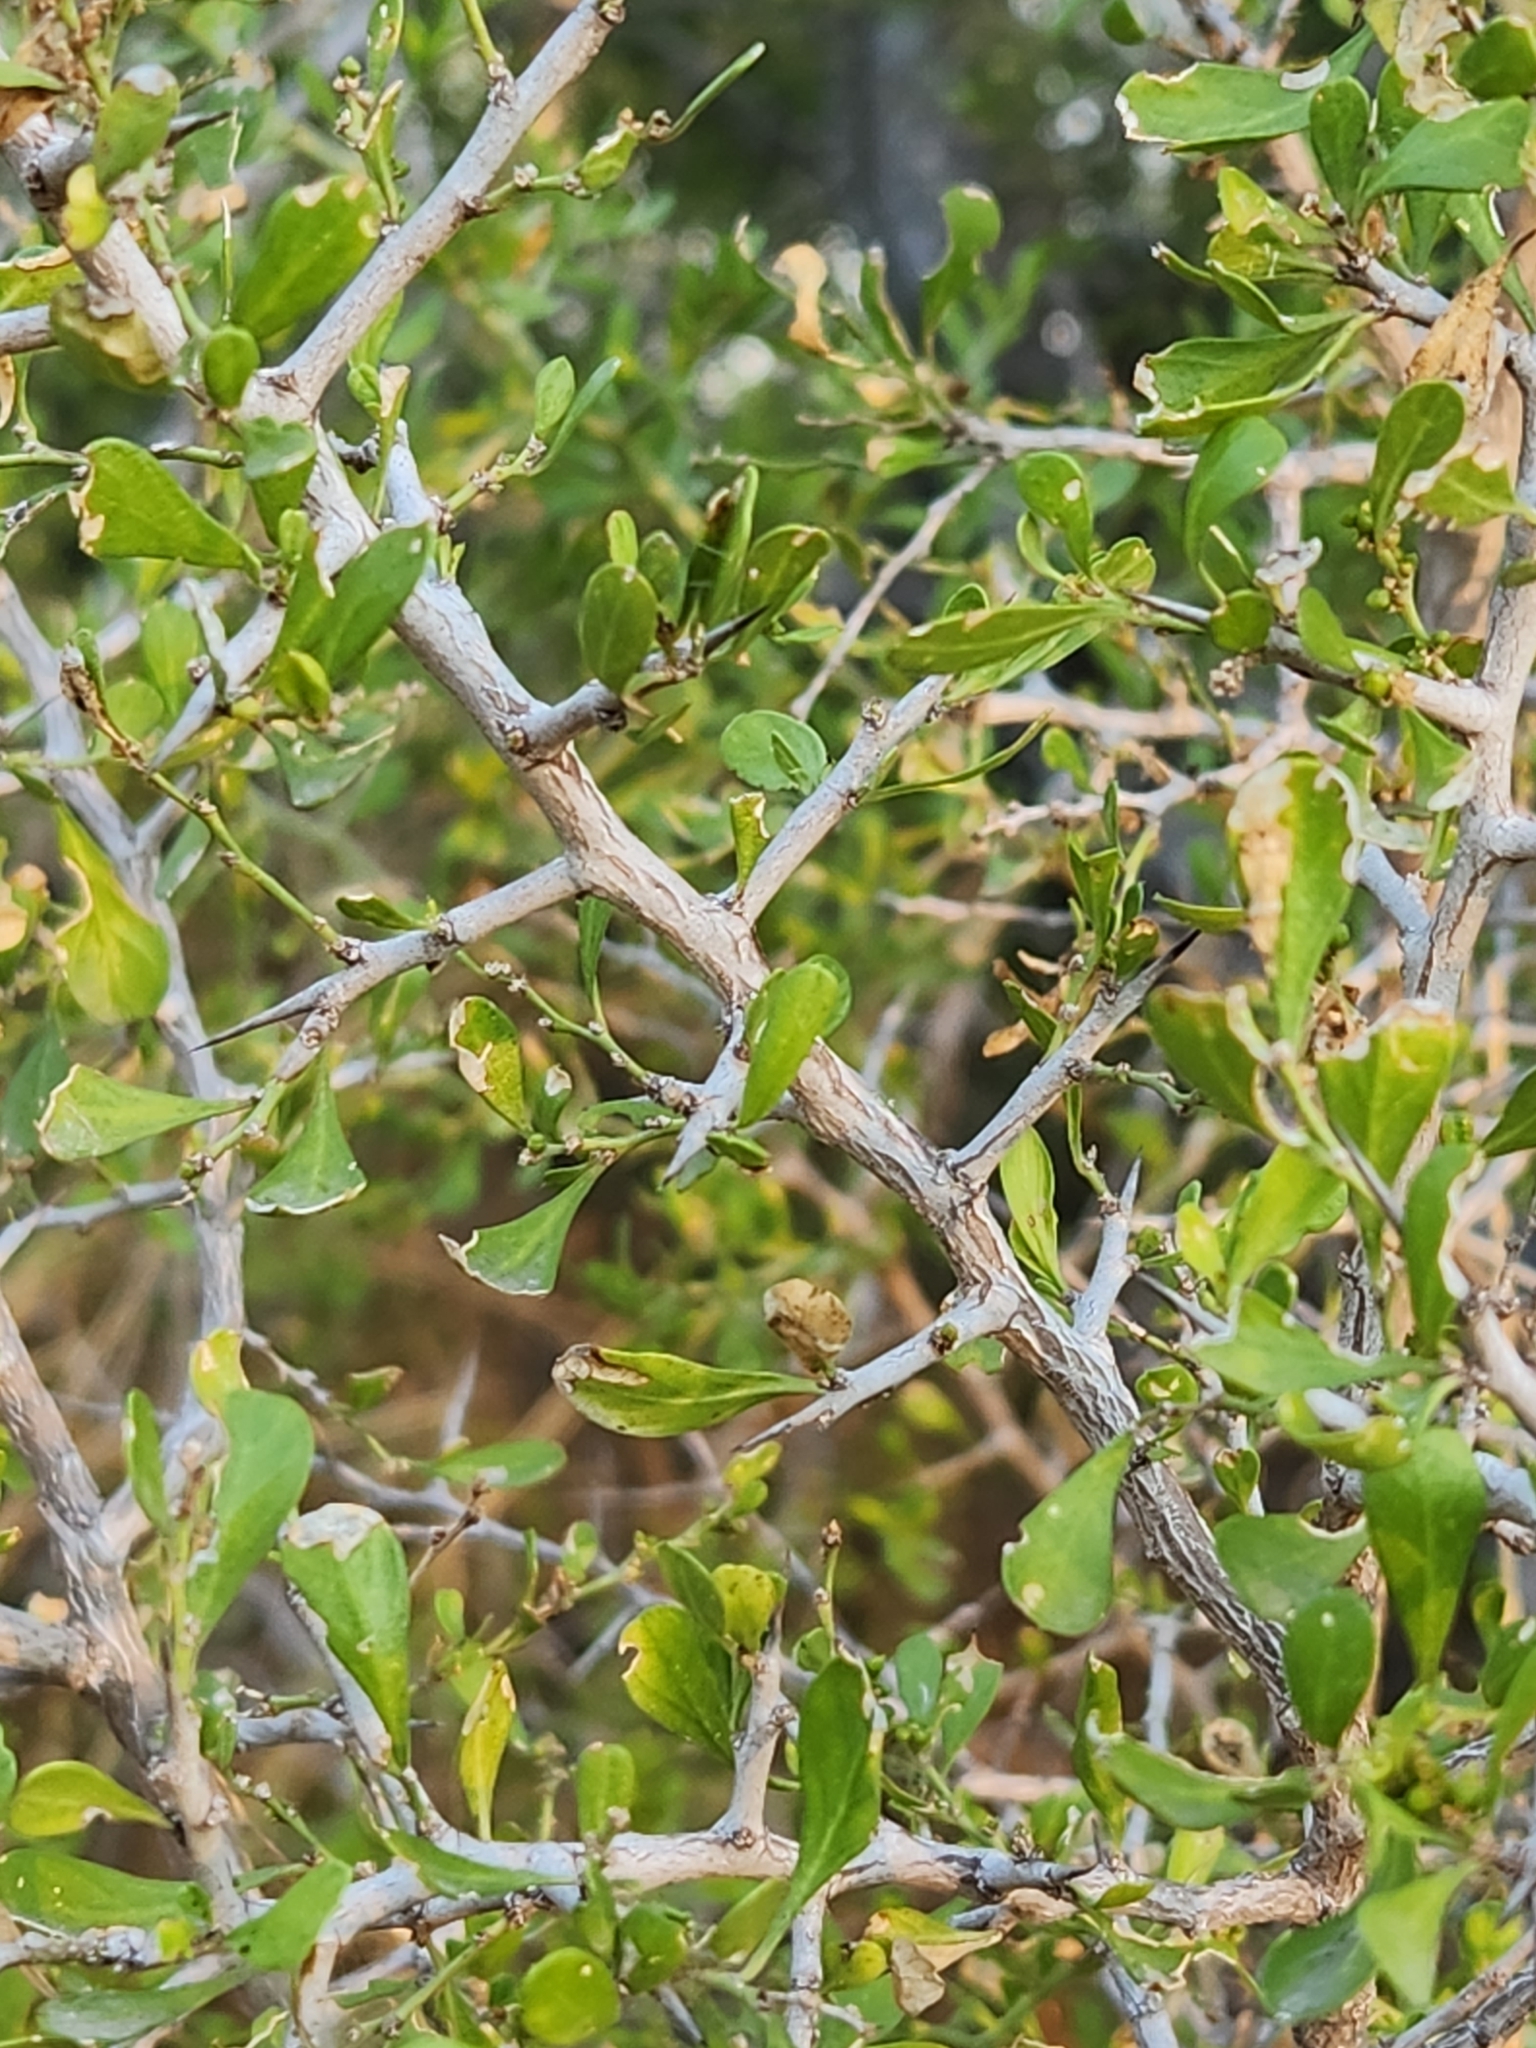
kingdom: Plantae
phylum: Tracheophyta
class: Magnoliopsida
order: Rosales
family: Rhamnaceae
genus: Condalia
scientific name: Condalia hookeri
